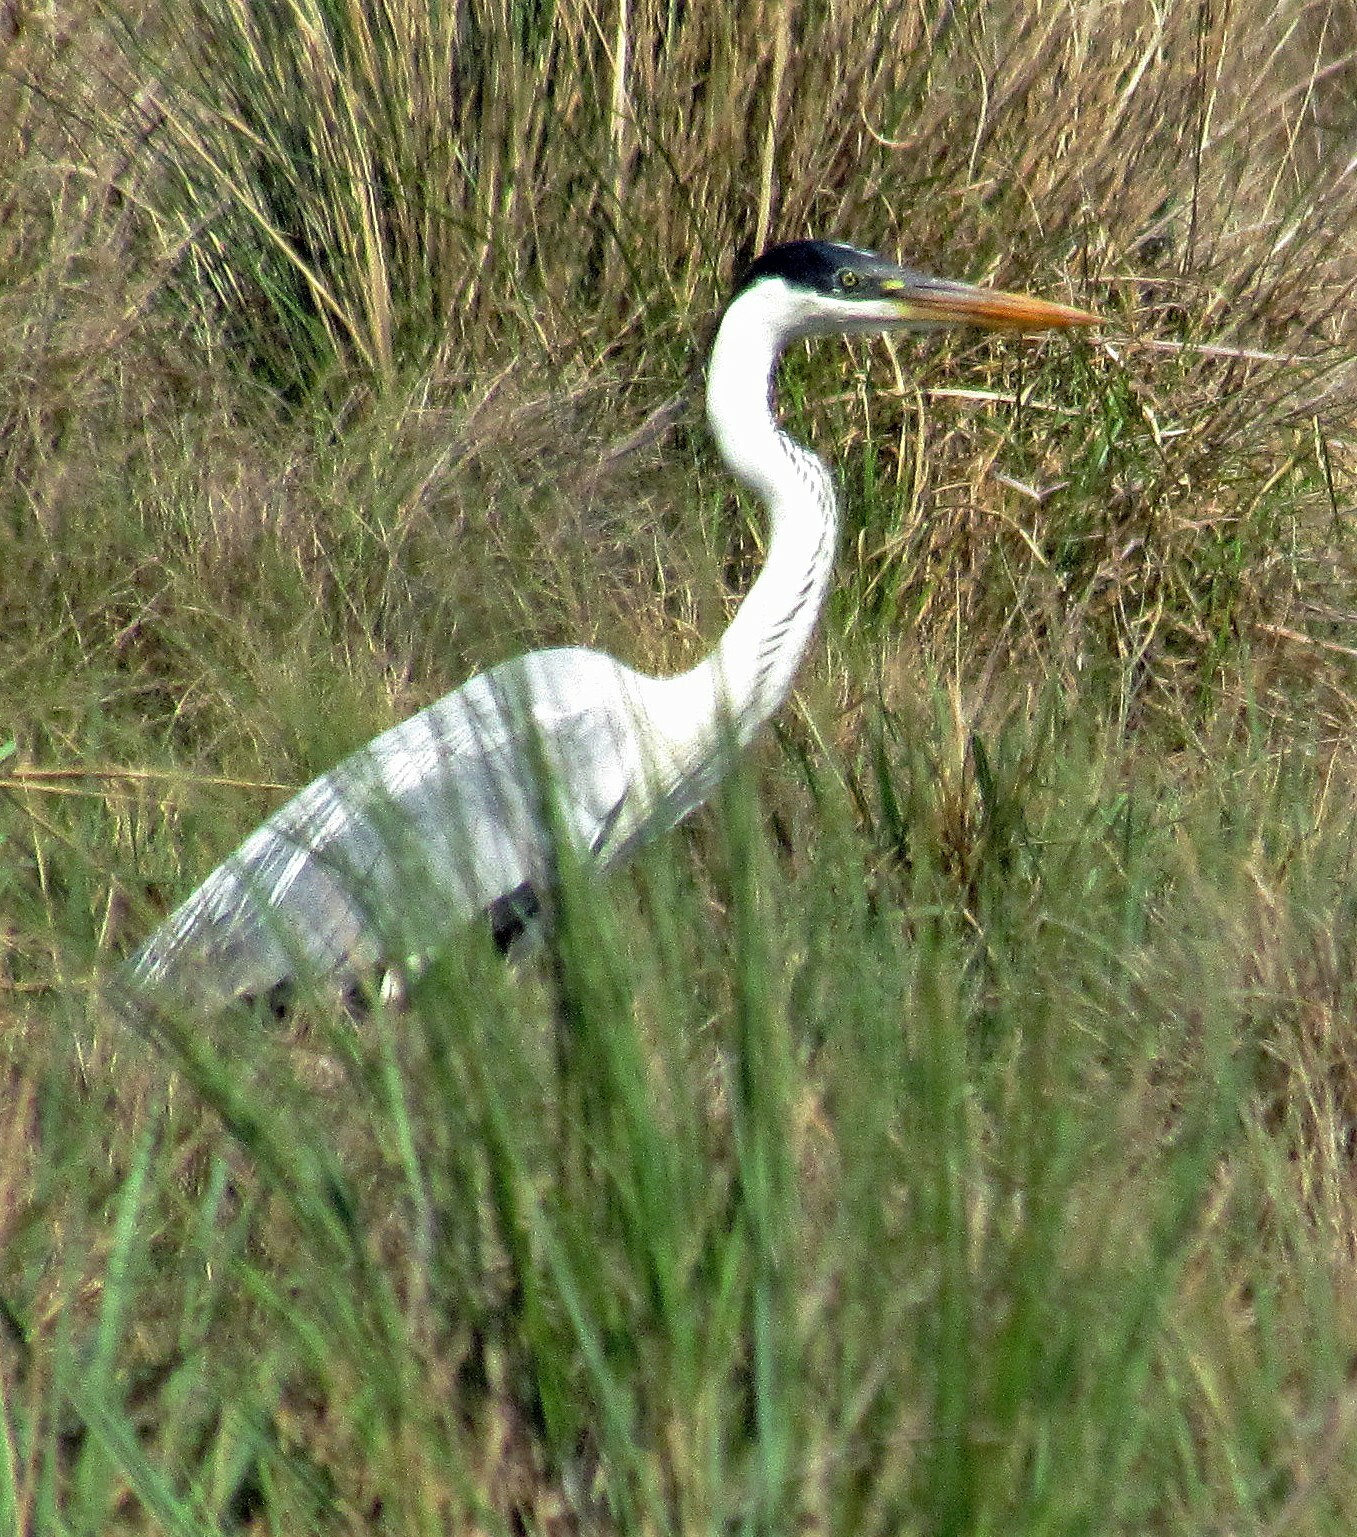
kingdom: Animalia
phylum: Chordata
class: Aves
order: Pelecaniformes
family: Ardeidae
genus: Ardea
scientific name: Ardea cocoi
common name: Cocoi heron
